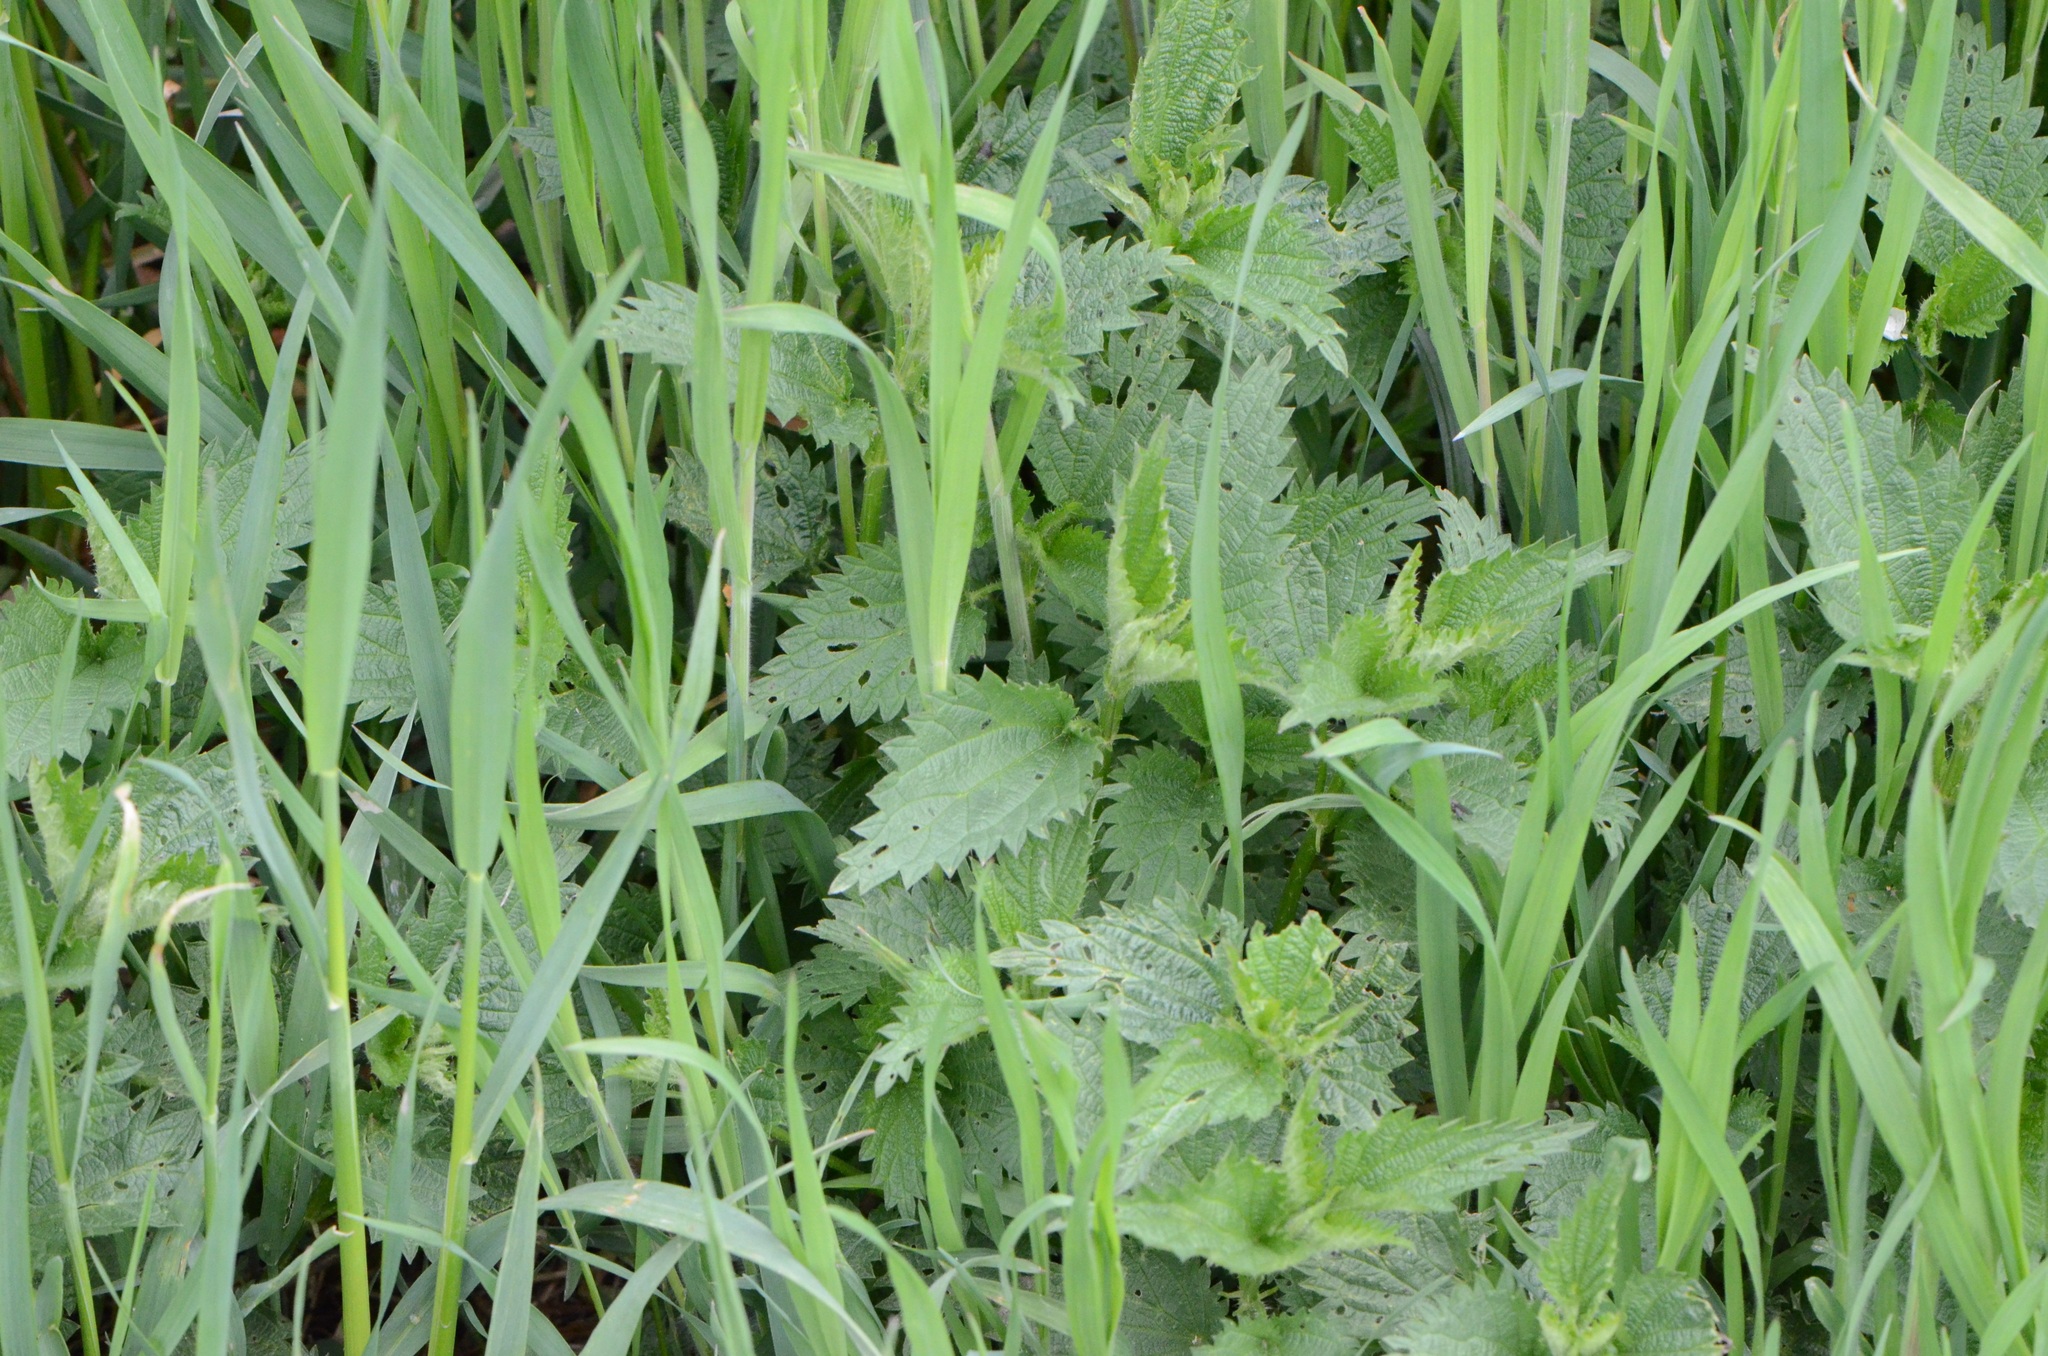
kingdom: Plantae
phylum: Tracheophyta
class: Magnoliopsida
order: Rosales
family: Urticaceae
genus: Urtica
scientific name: Urtica dioica
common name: Common nettle
